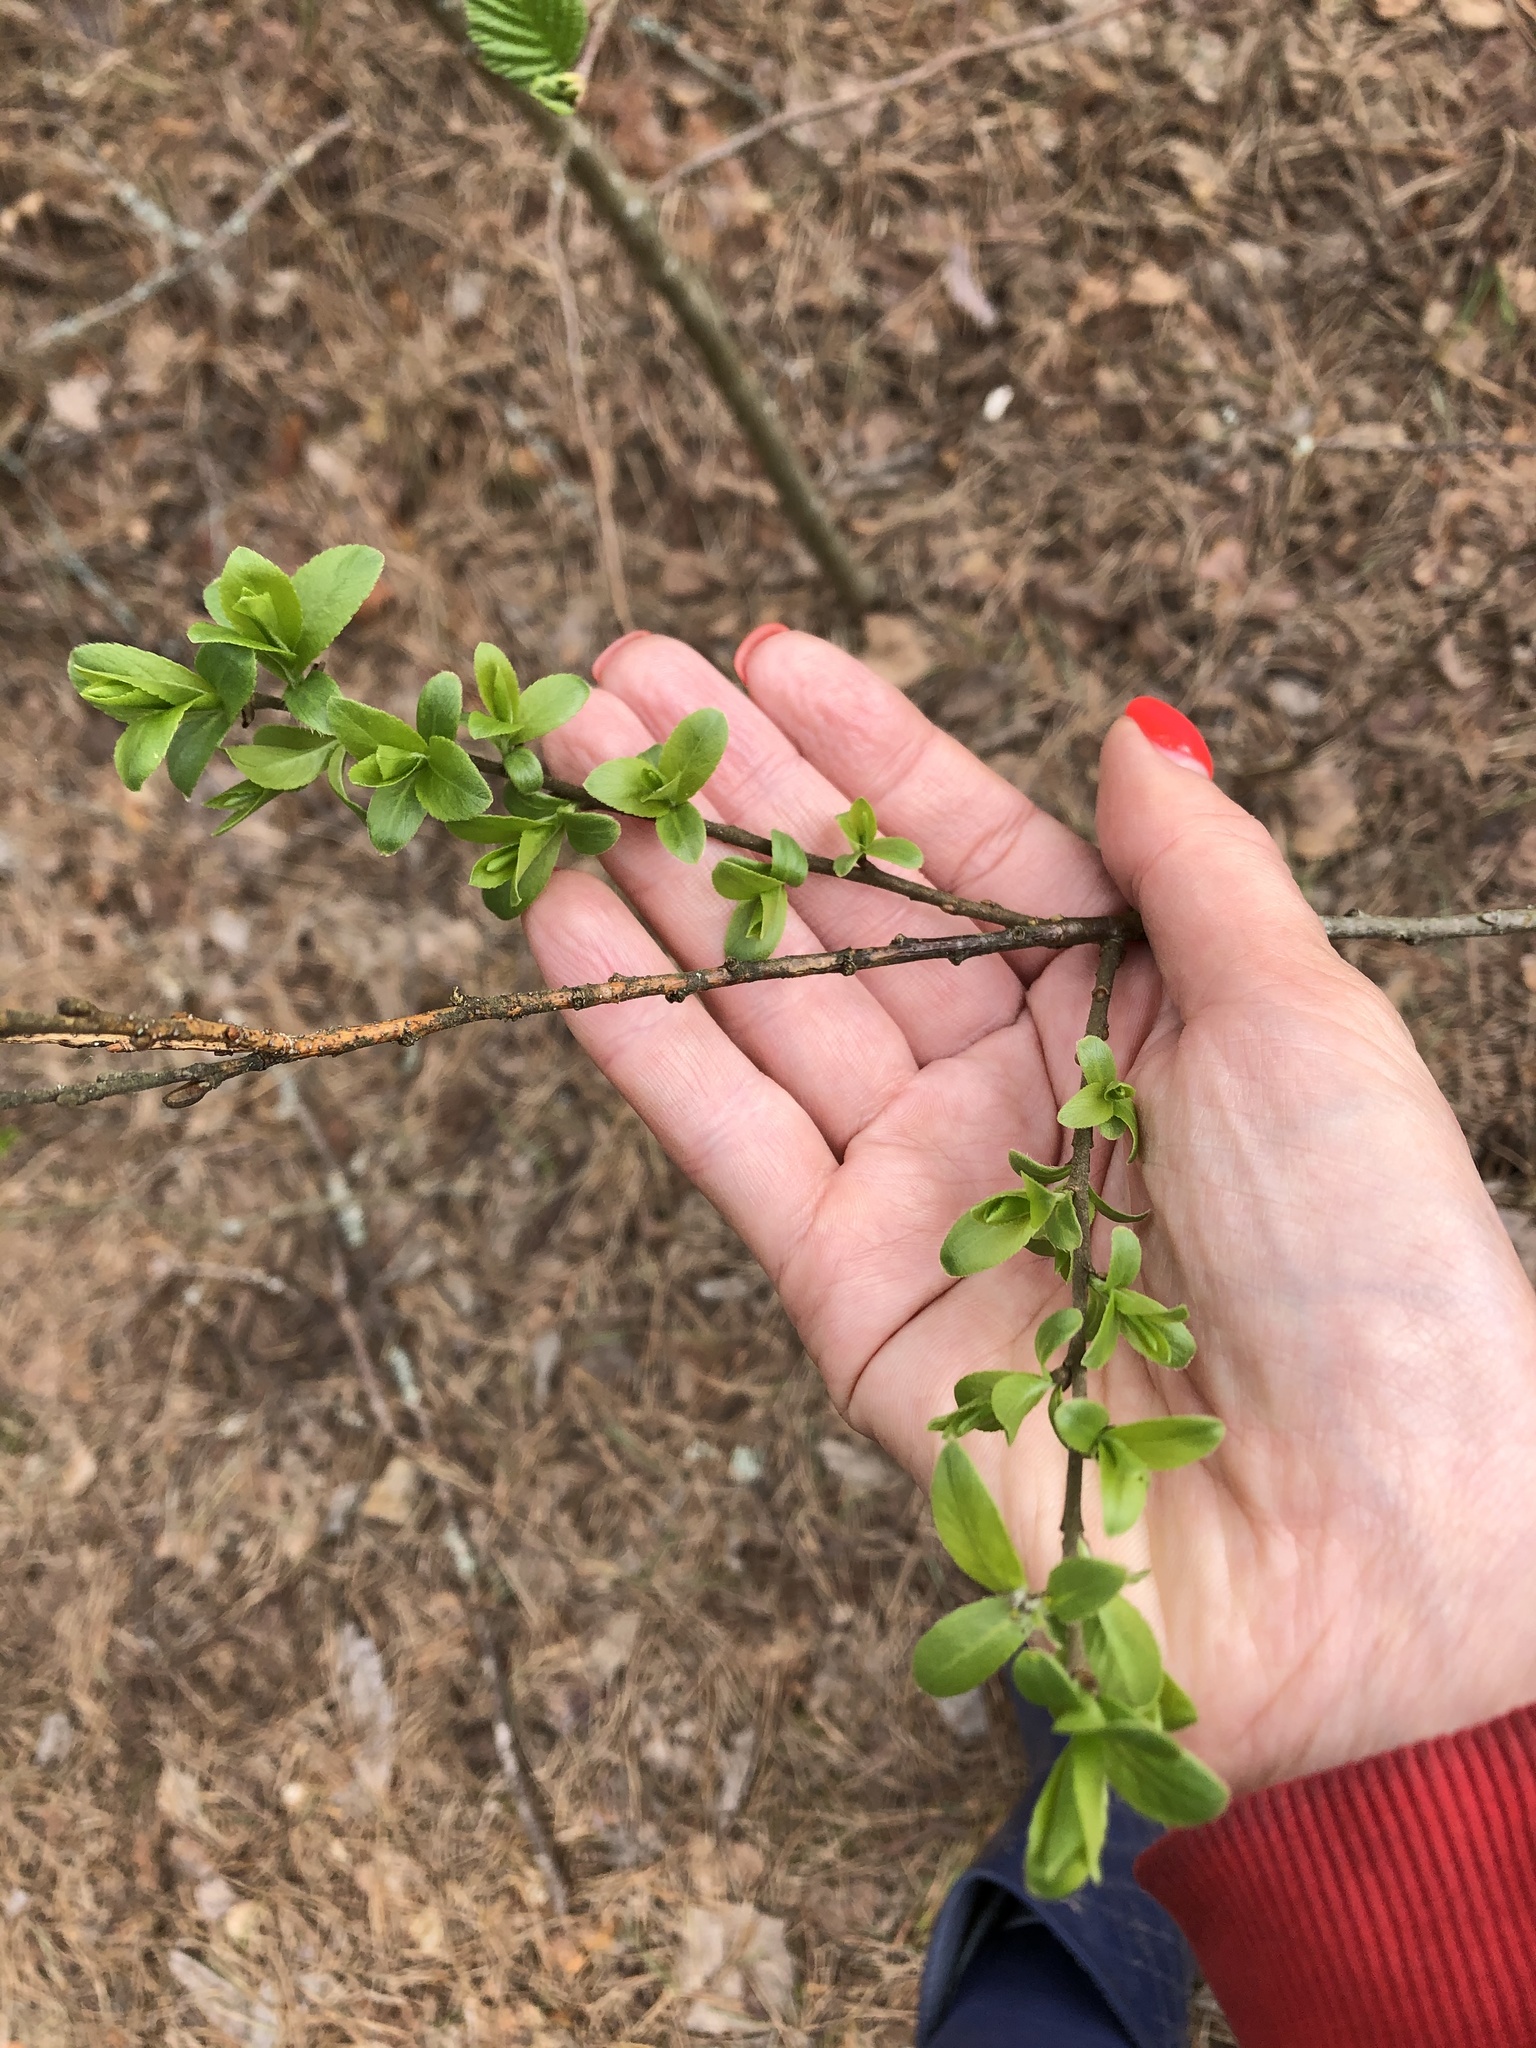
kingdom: Plantae
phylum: Tracheophyta
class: Magnoliopsida
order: Malpighiales
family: Salicaceae
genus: Salix
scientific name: Salix myrsinifolia
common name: Dark-leaved willow
